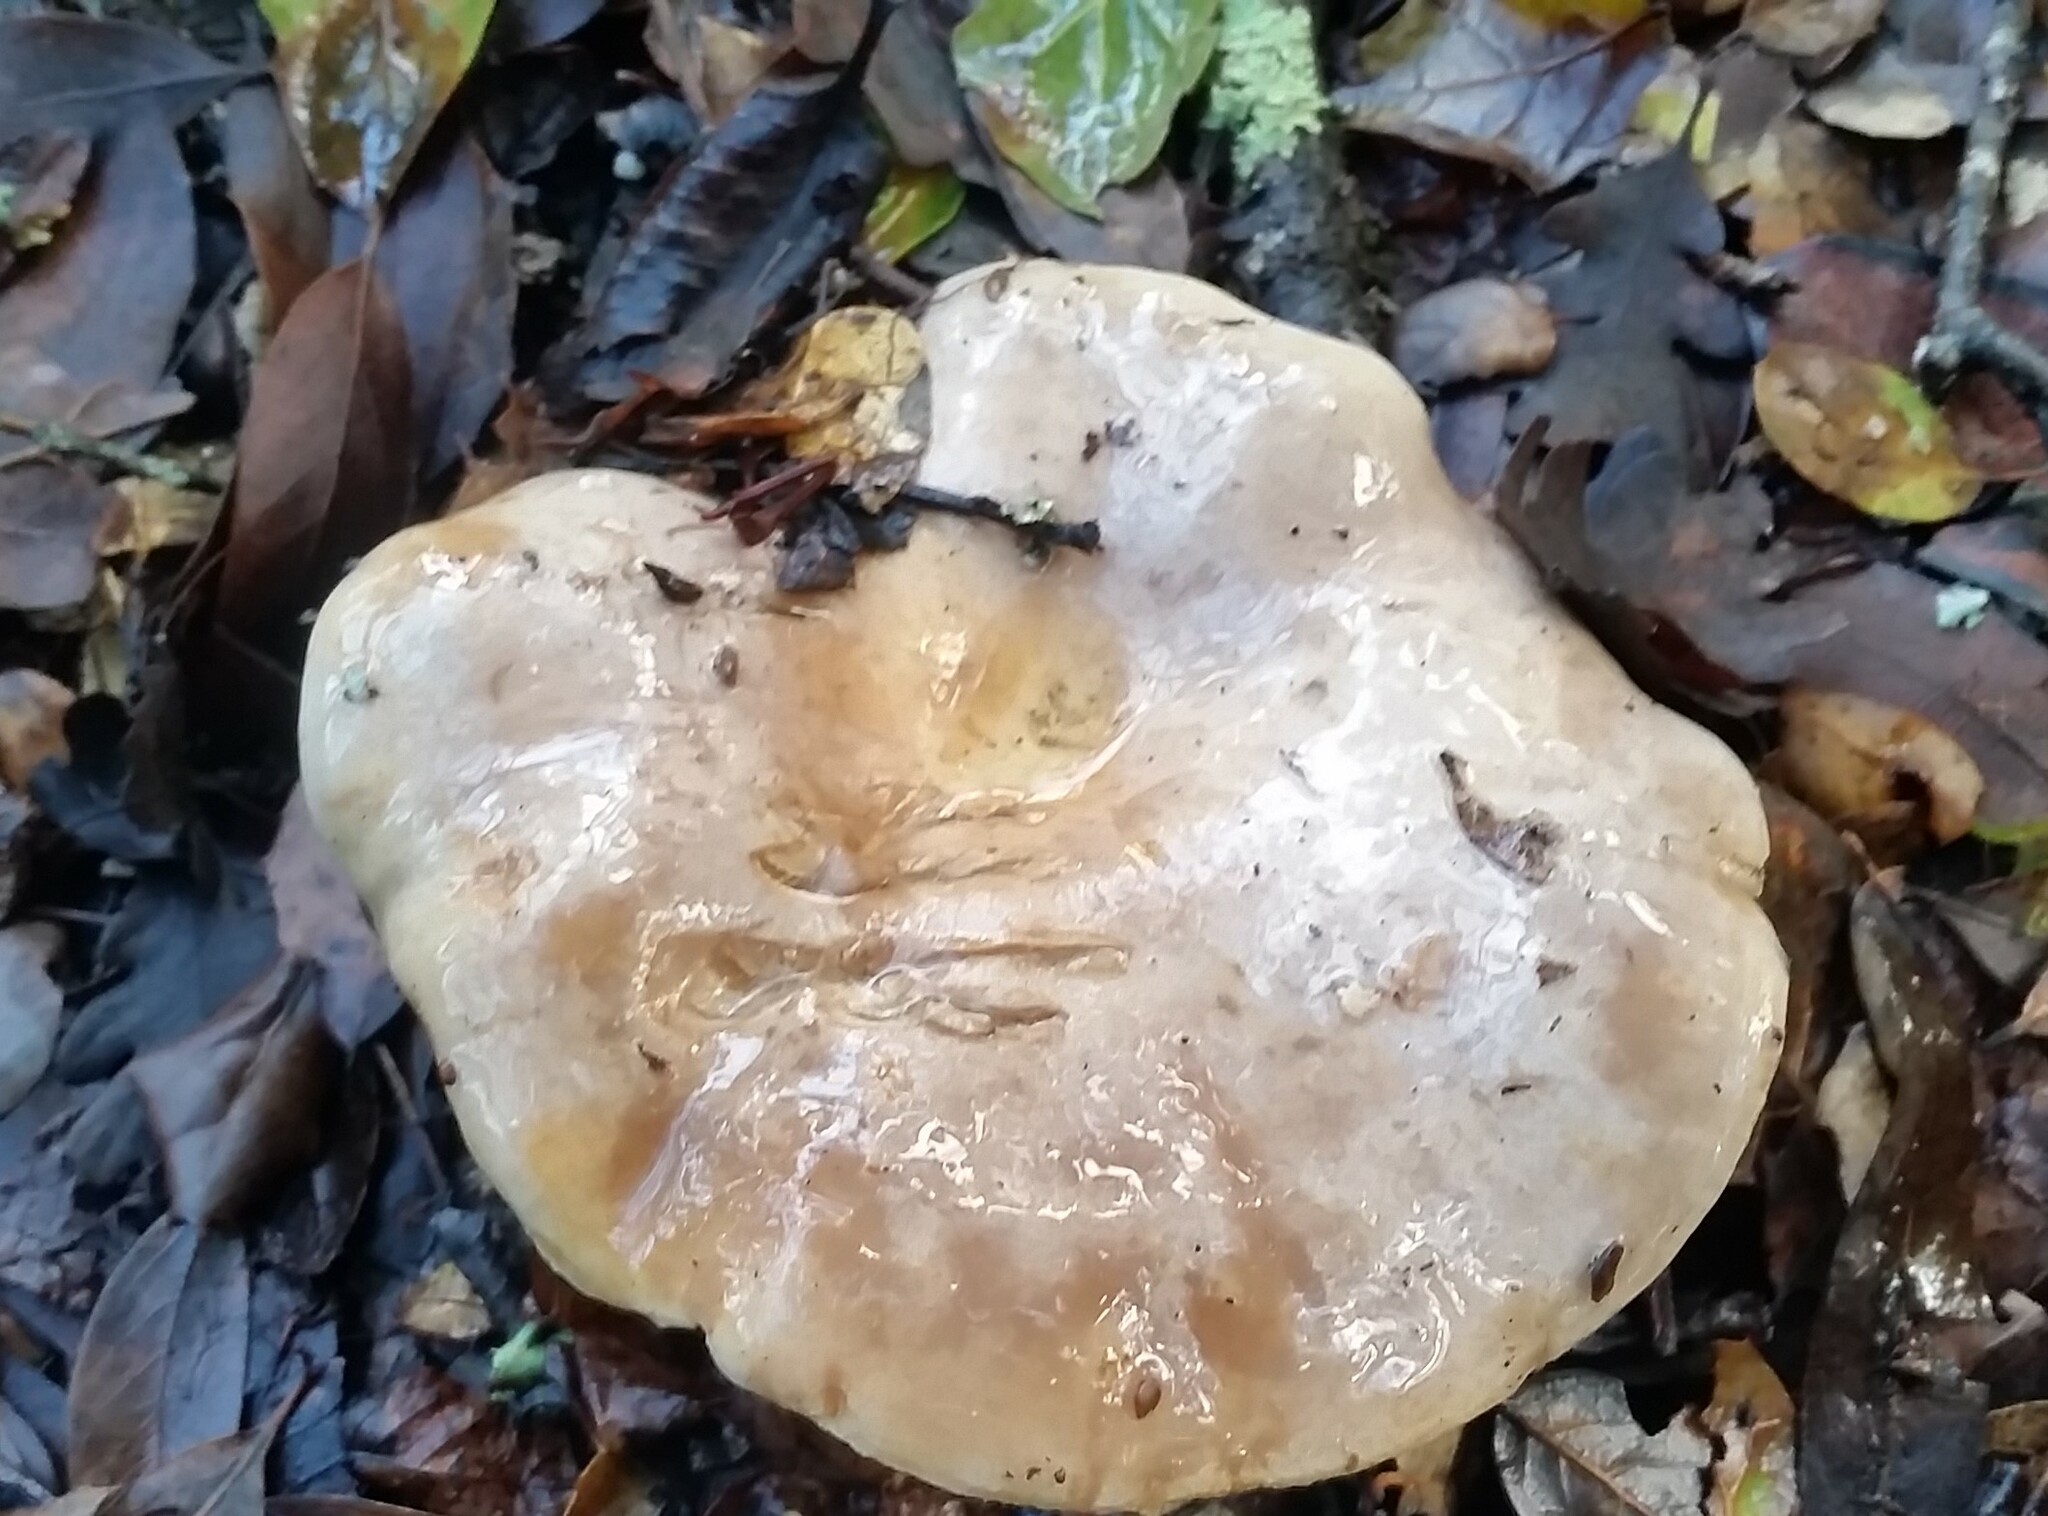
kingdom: Fungi
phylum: Basidiomycota
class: Agaricomycetes
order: Russulales
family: Russulaceae
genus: Lactarius
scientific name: Lactarius argillaceifolius
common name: Clay-gilled milkcap
